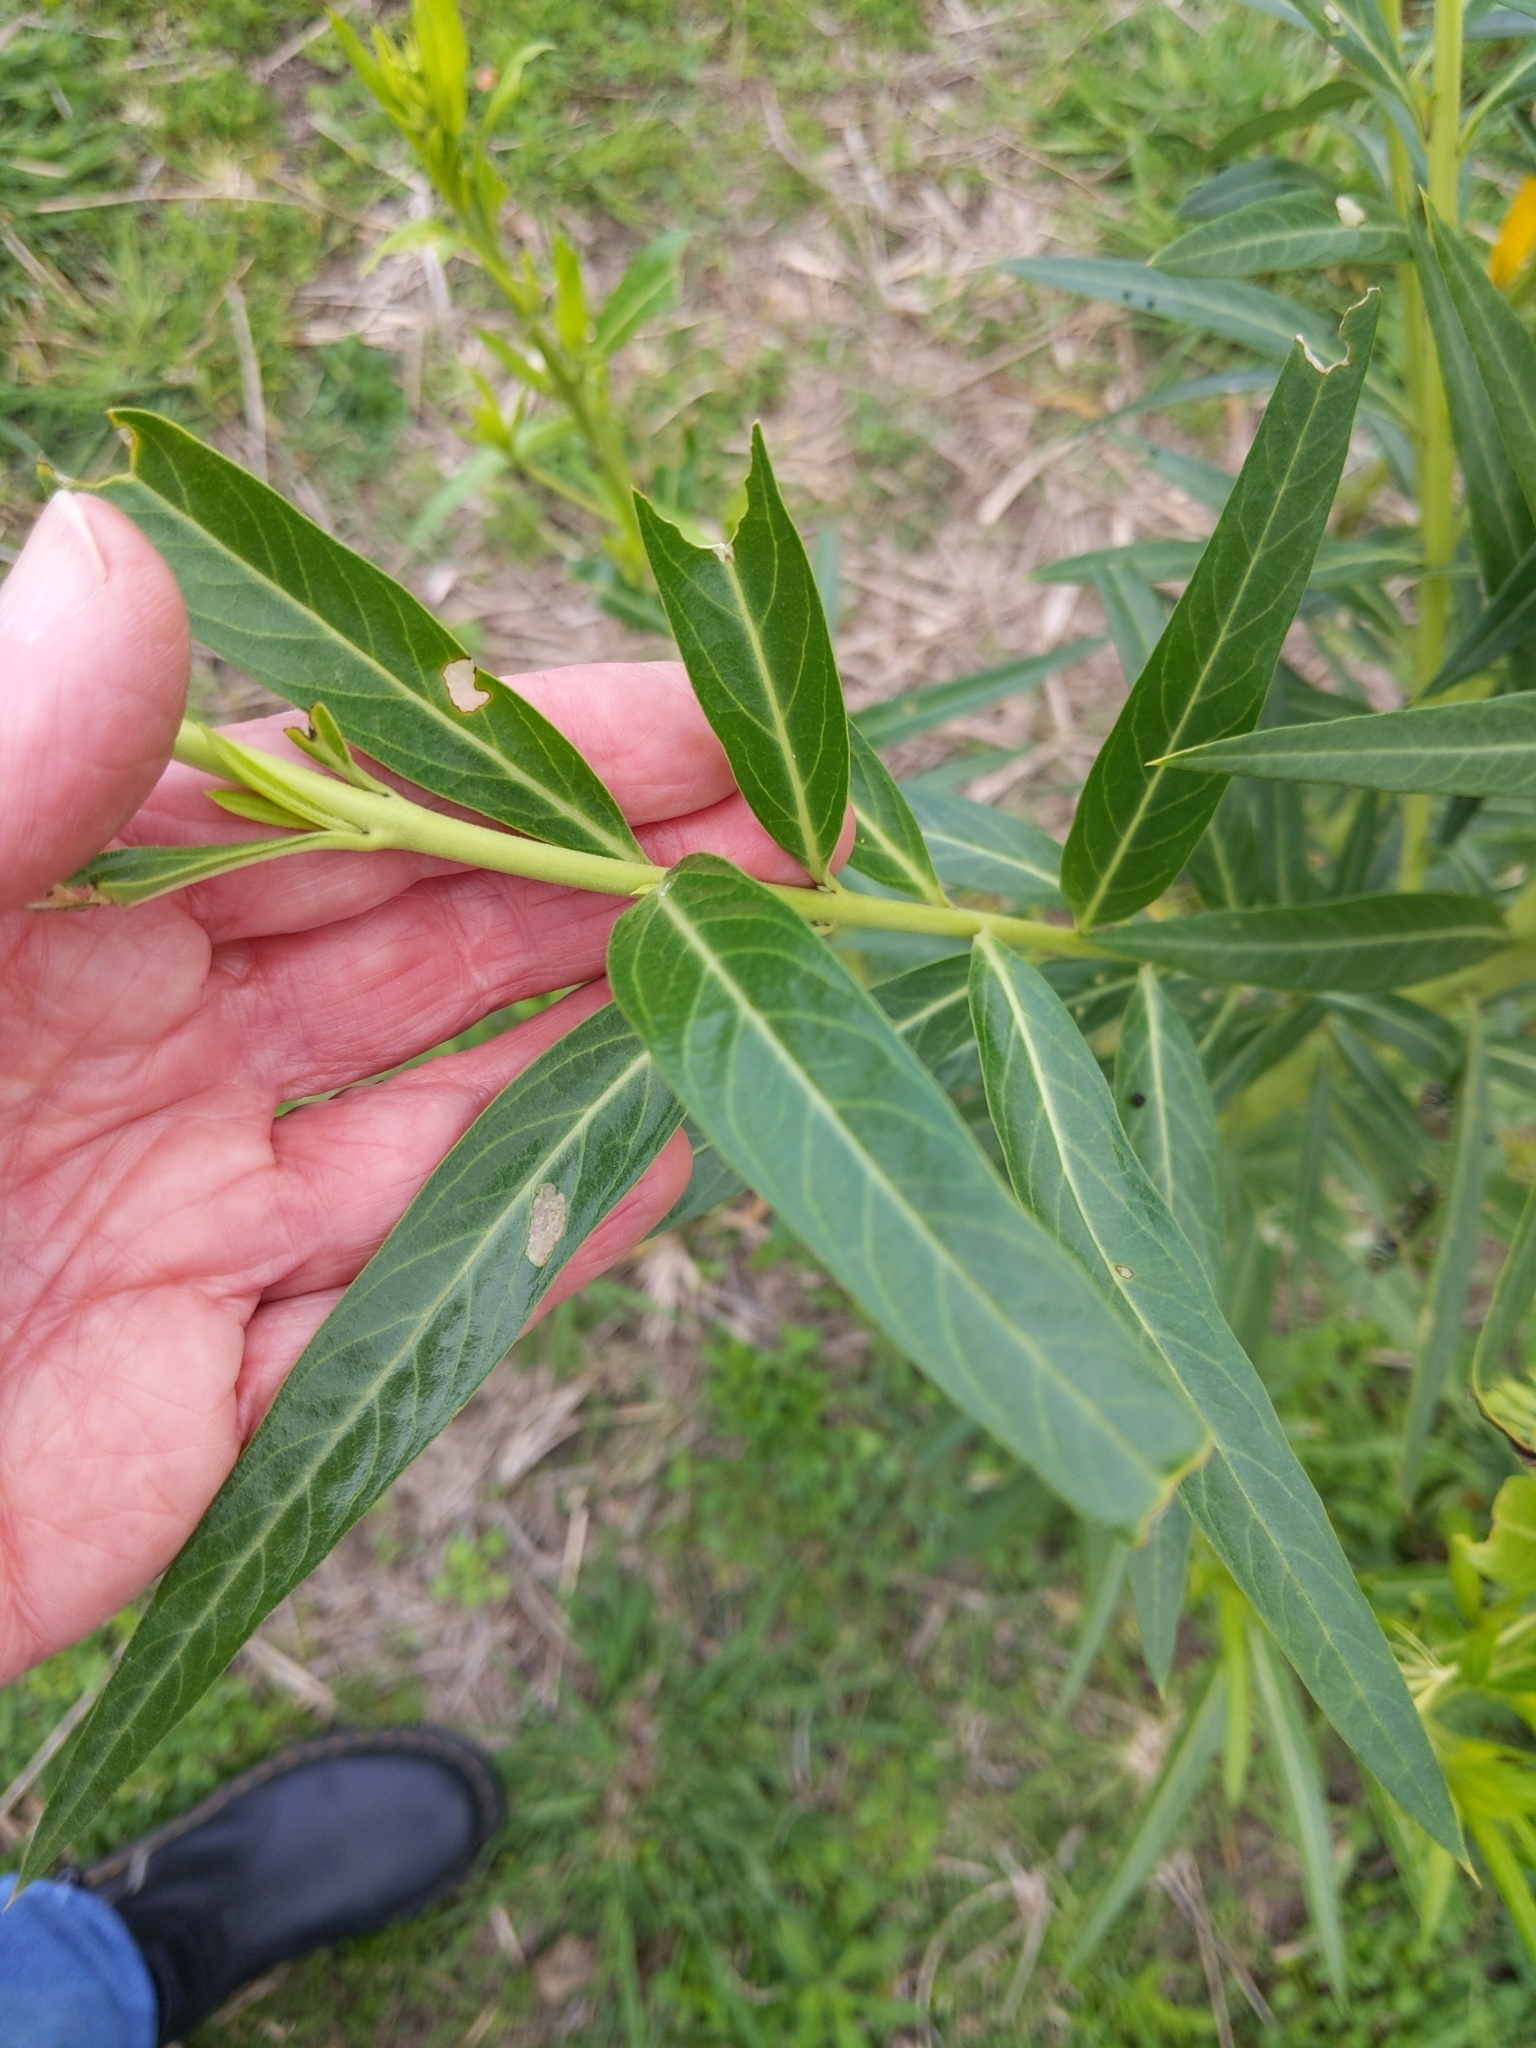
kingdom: Plantae
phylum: Tracheophyta
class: Magnoliopsida
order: Gentianales
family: Apocynaceae
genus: Gomphocarpus
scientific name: Gomphocarpus fruticosus
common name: Milkweed
